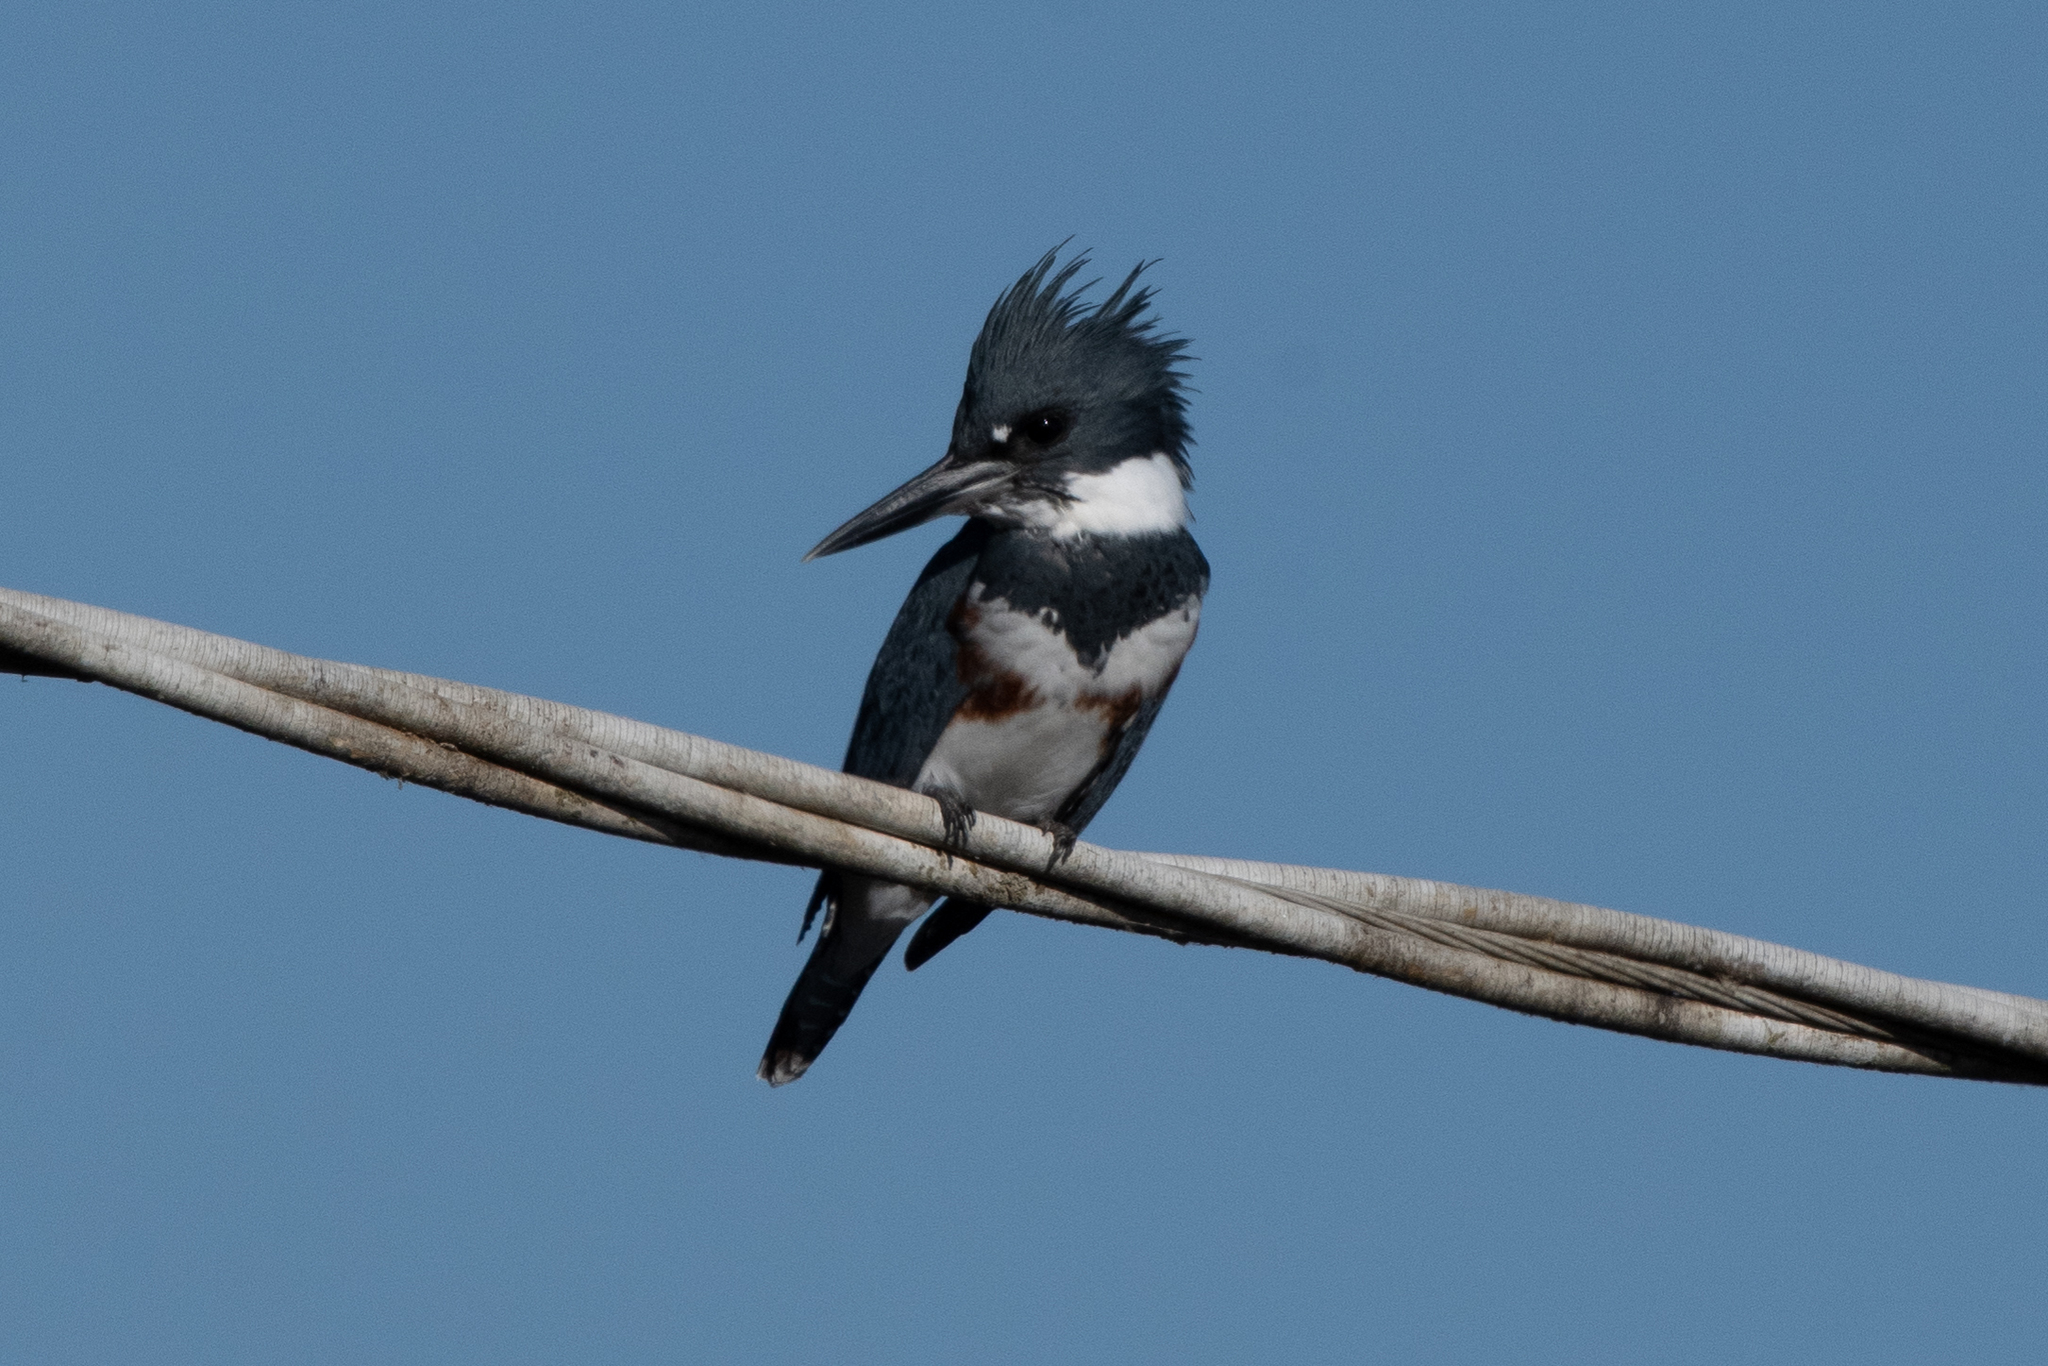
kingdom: Animalia
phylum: Chordata
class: Aves
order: Coraciiformes
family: Alcedinidae
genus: Megaceryle
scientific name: Megaceryle alcyon
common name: Belted kingfisher
